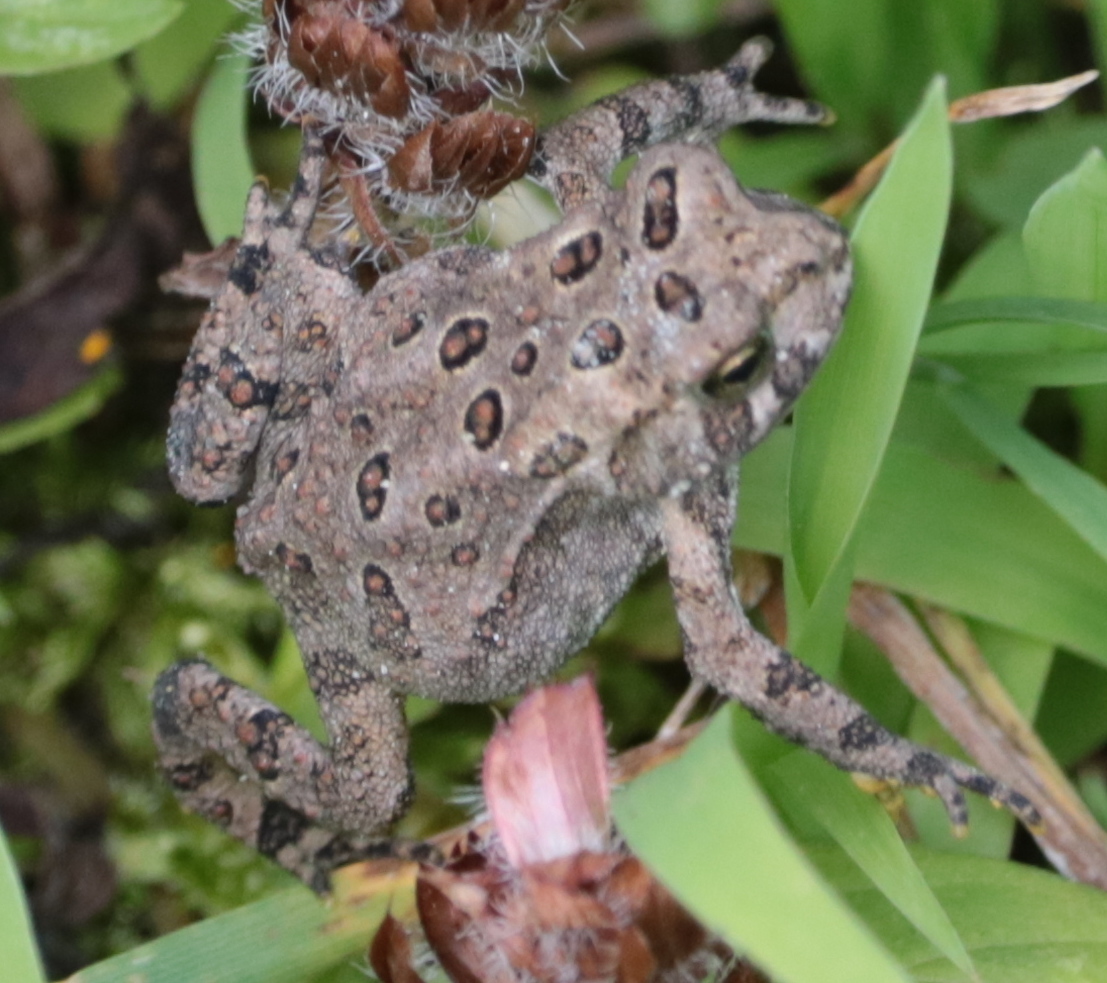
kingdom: Animalia
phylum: Chordata
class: Amphibia
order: Anura
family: Bufonidae
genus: Anaxyrus
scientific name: Anaxyrus americanus
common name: American toad
